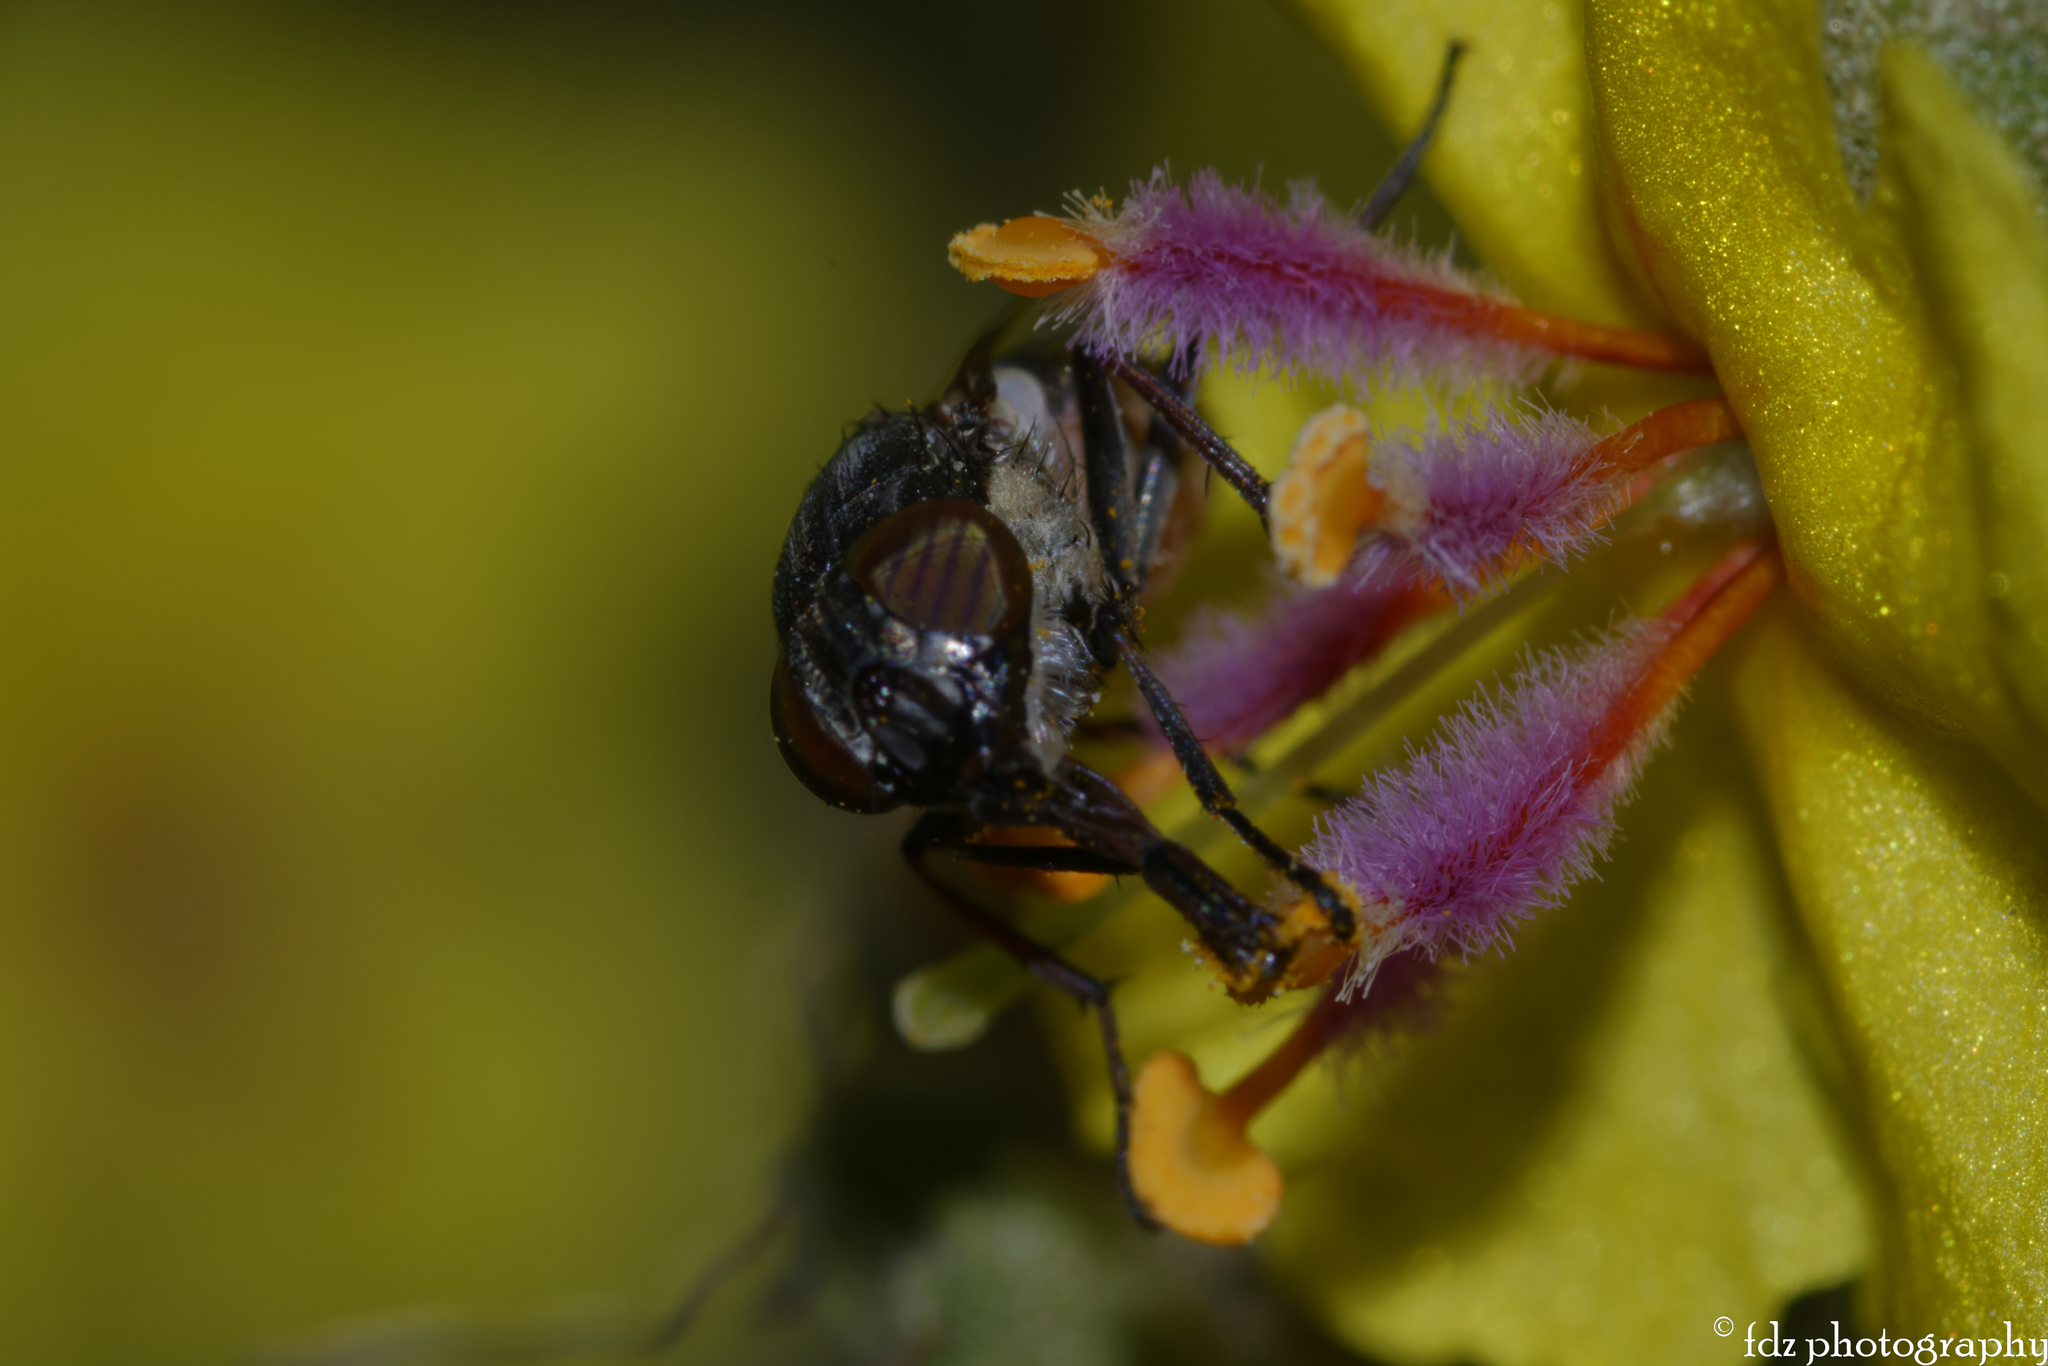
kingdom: Animalia
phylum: Arthropoda
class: Insecta
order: Diptera
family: Calliphoridae
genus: Stomorhina
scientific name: Stomorhina lunata
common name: Locust blowfly
